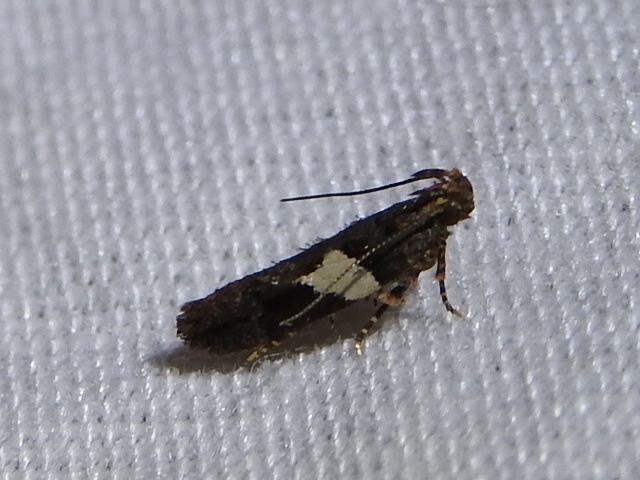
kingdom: Animalia
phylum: Arthropoda
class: Insecta
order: Lepidoptera
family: Gelechiidae
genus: Friseria
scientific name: Friseria acaciella
